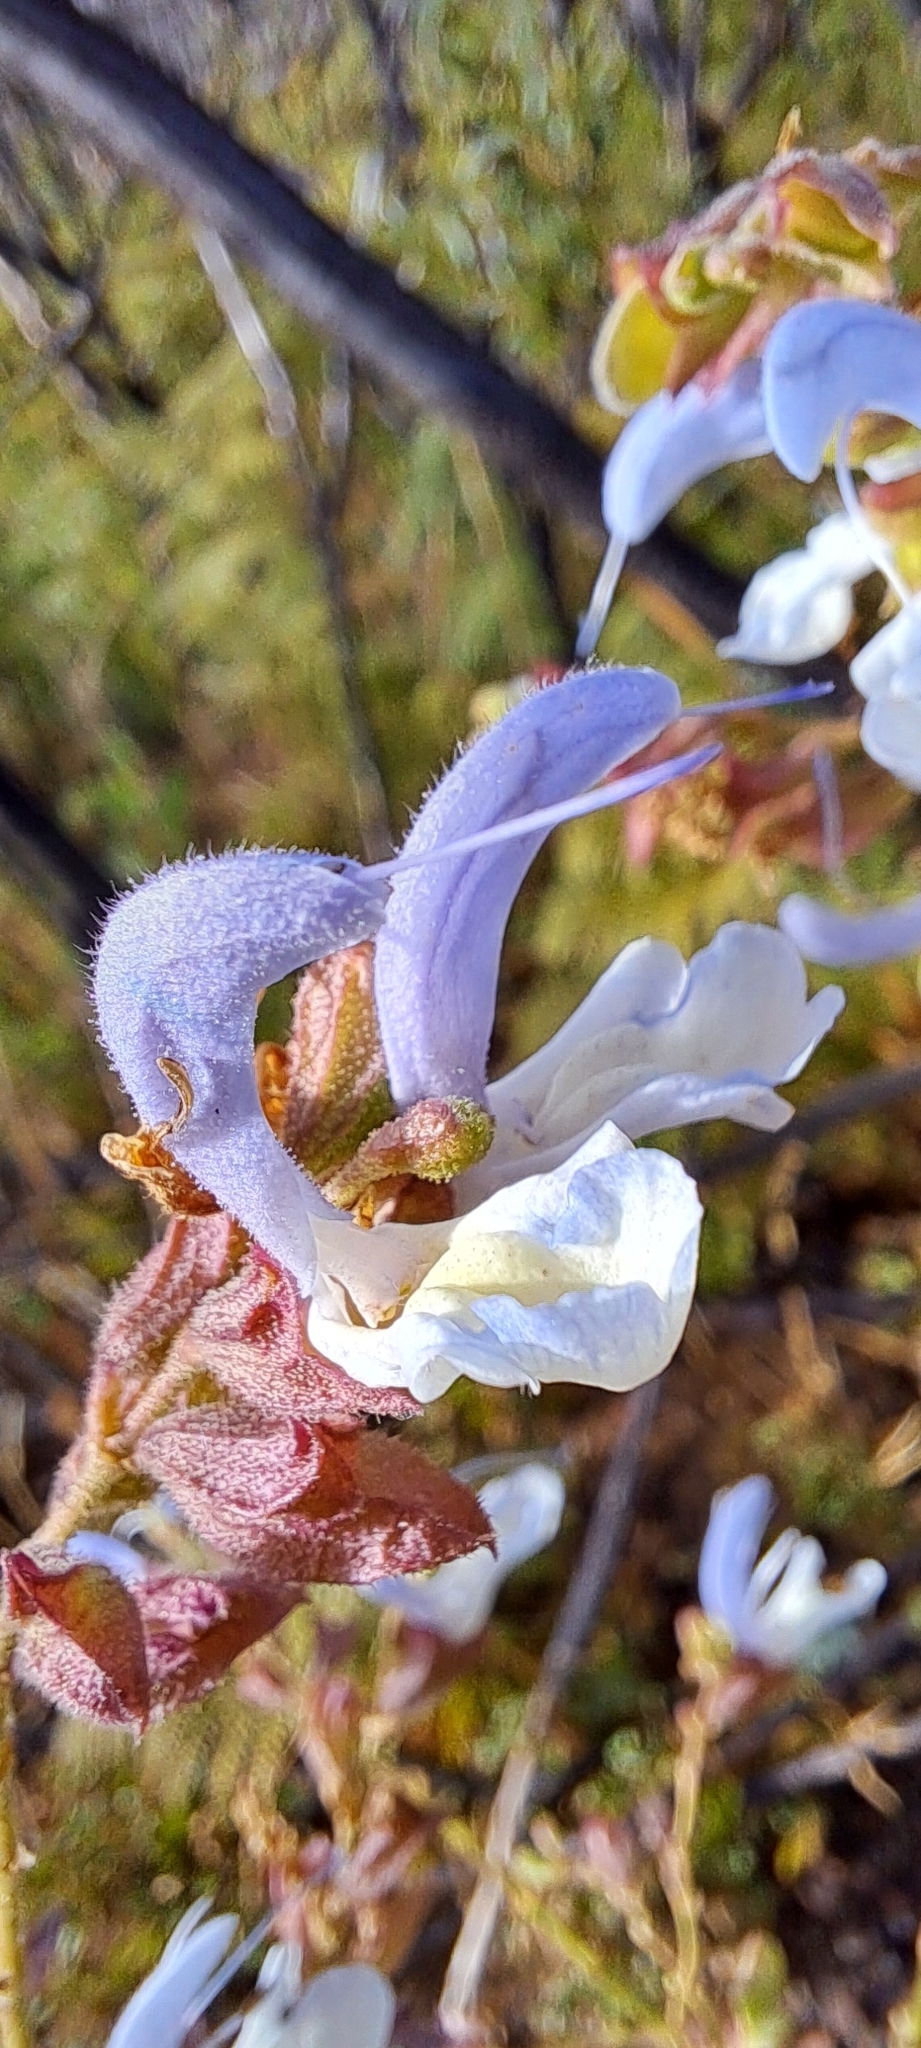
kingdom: Plantae
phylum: Tracheophyta
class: Magnoliopsida
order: Lamiales
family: Lamiaceae
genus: Salvia
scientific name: Salvia chamelaeagnea
